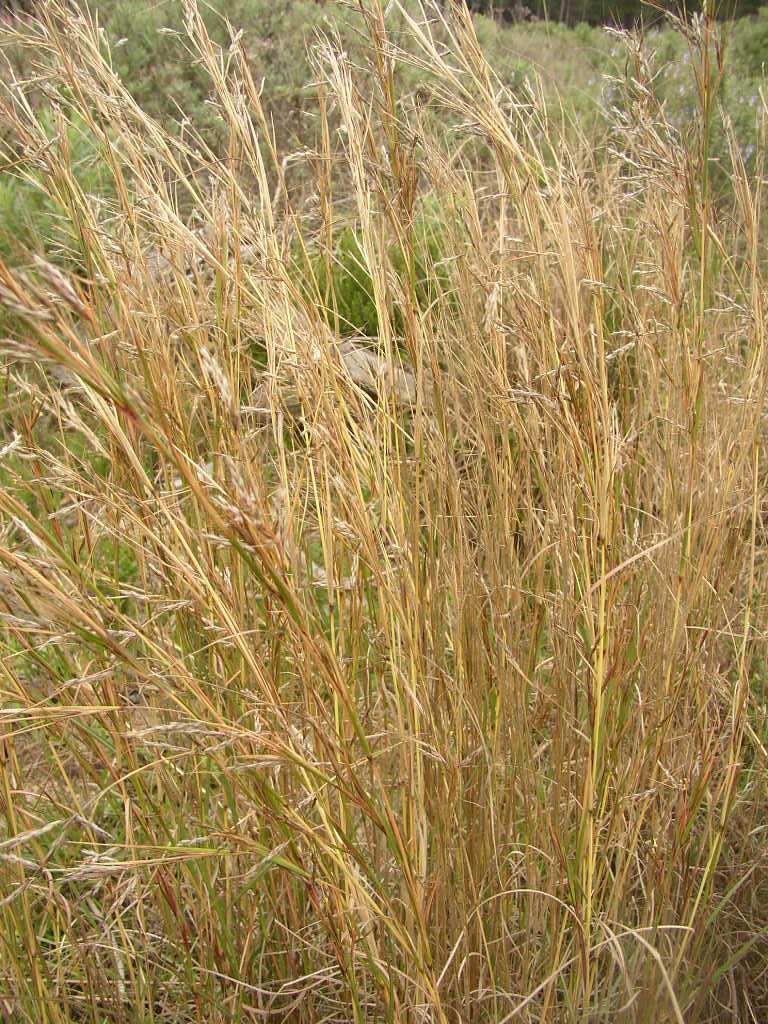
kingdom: Plantae
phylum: Tracheophyta
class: Liliopsida
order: Poales
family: Poaceae
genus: Hyparrhenia
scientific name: Hyparrhenia hirta
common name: Thatching grass
